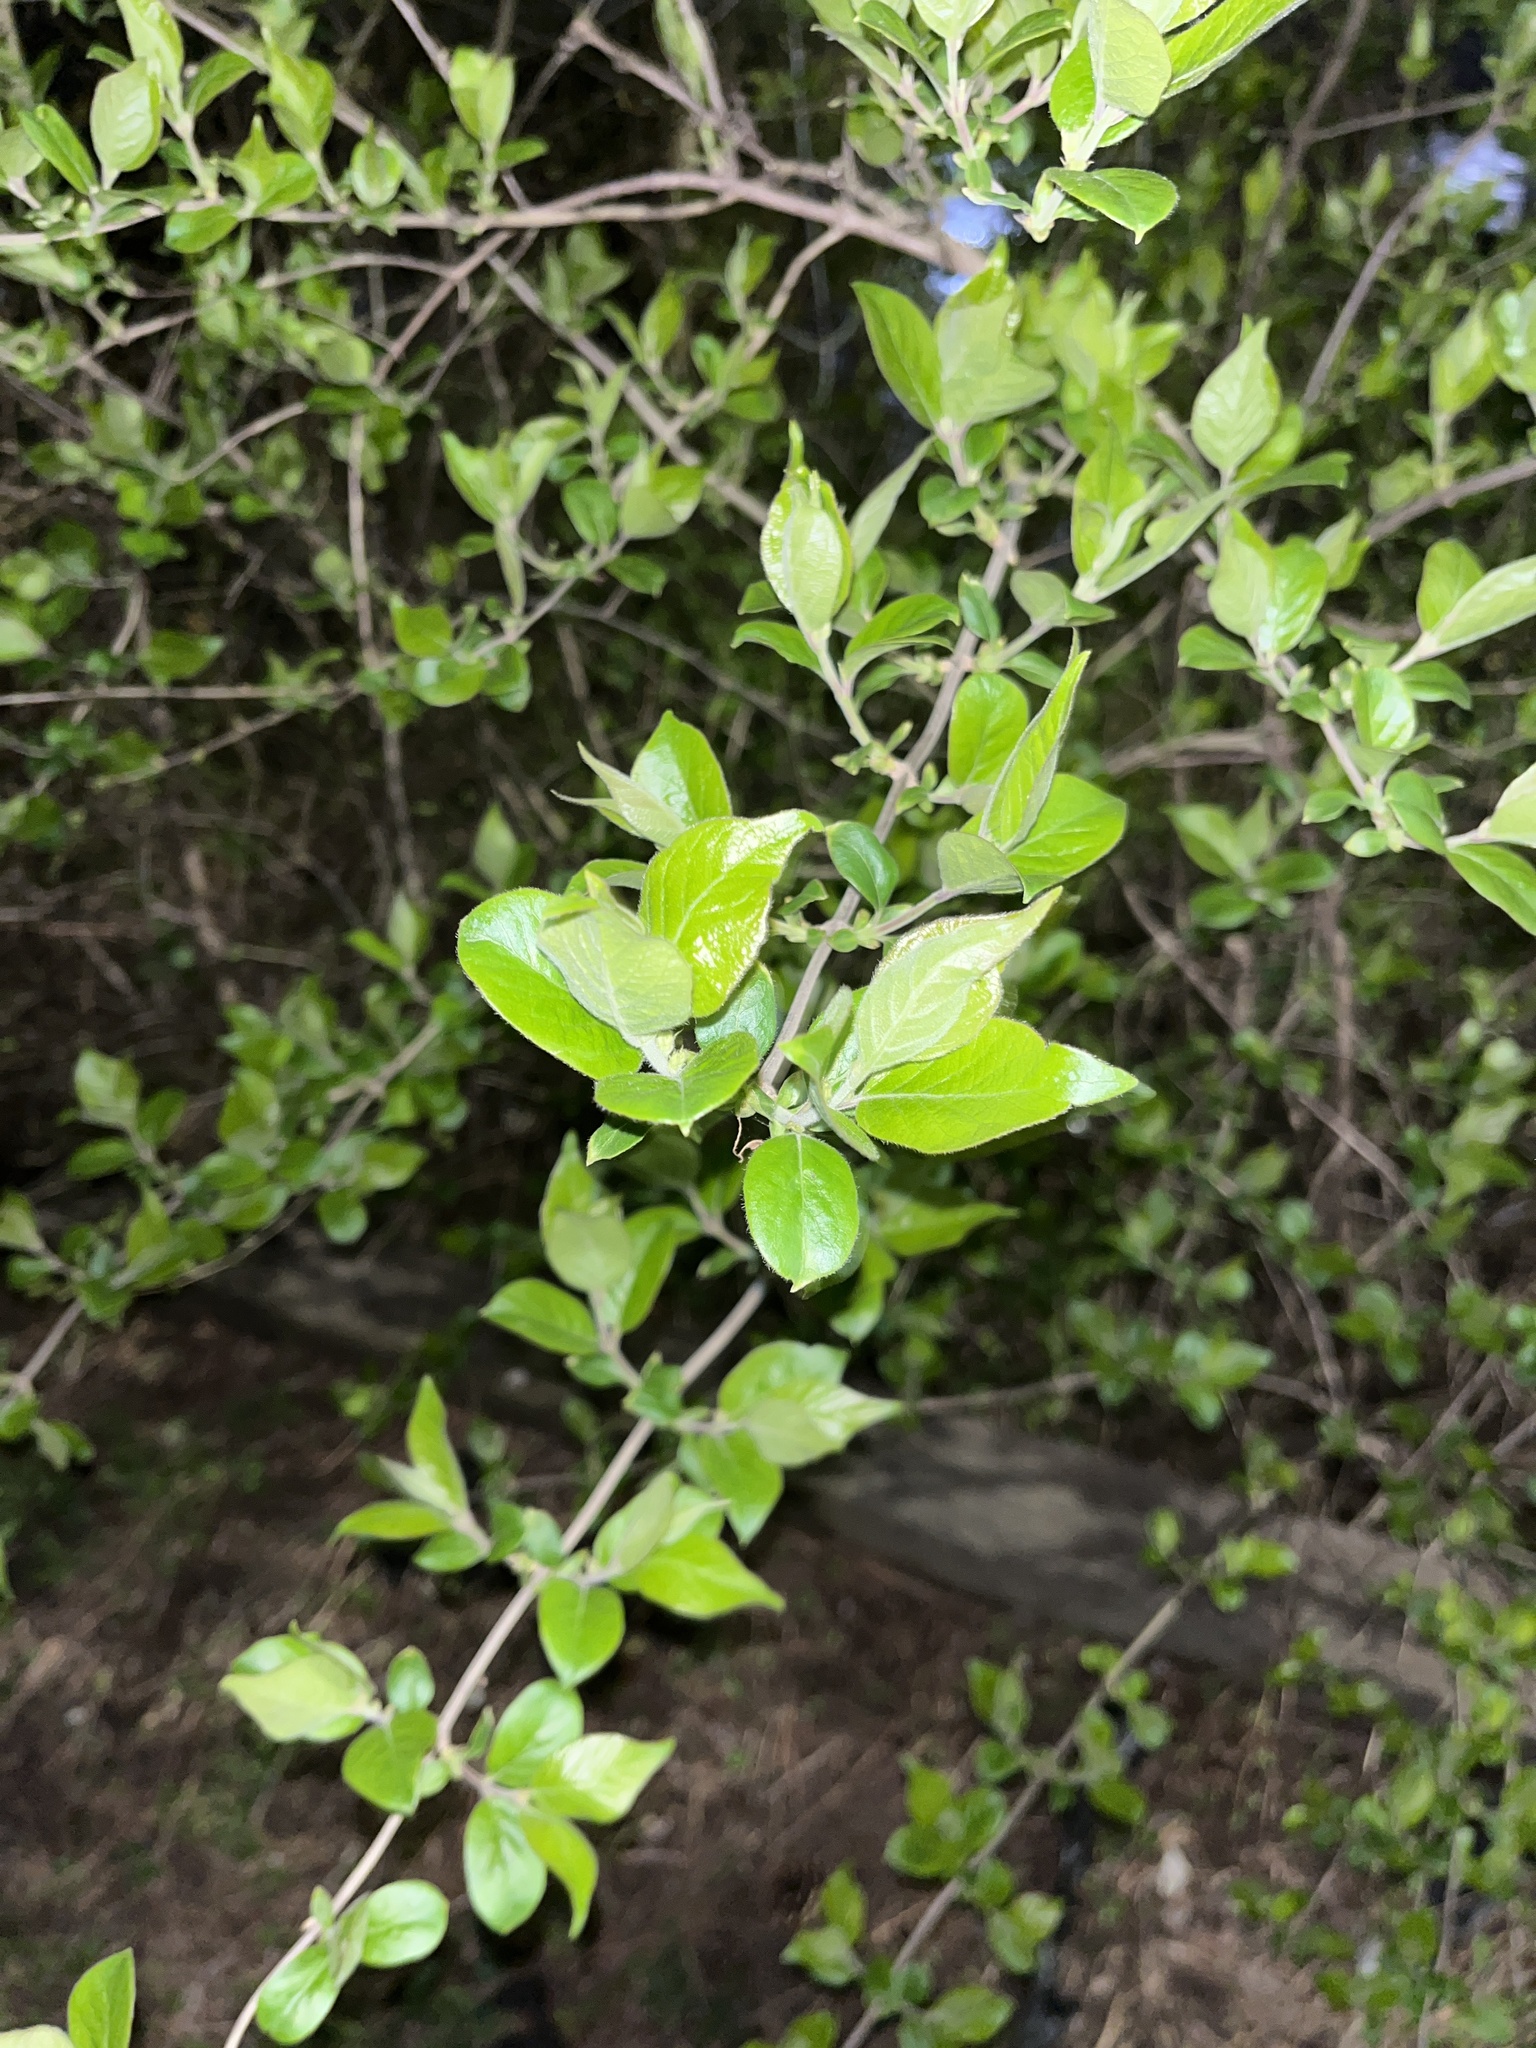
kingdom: Plantae
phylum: Tracheophyta
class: Magnoliopsida
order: Dipsacales
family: Caprifoliaceae
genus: Lonicera
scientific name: Lonicera maackii
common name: Amur honeysuckle
